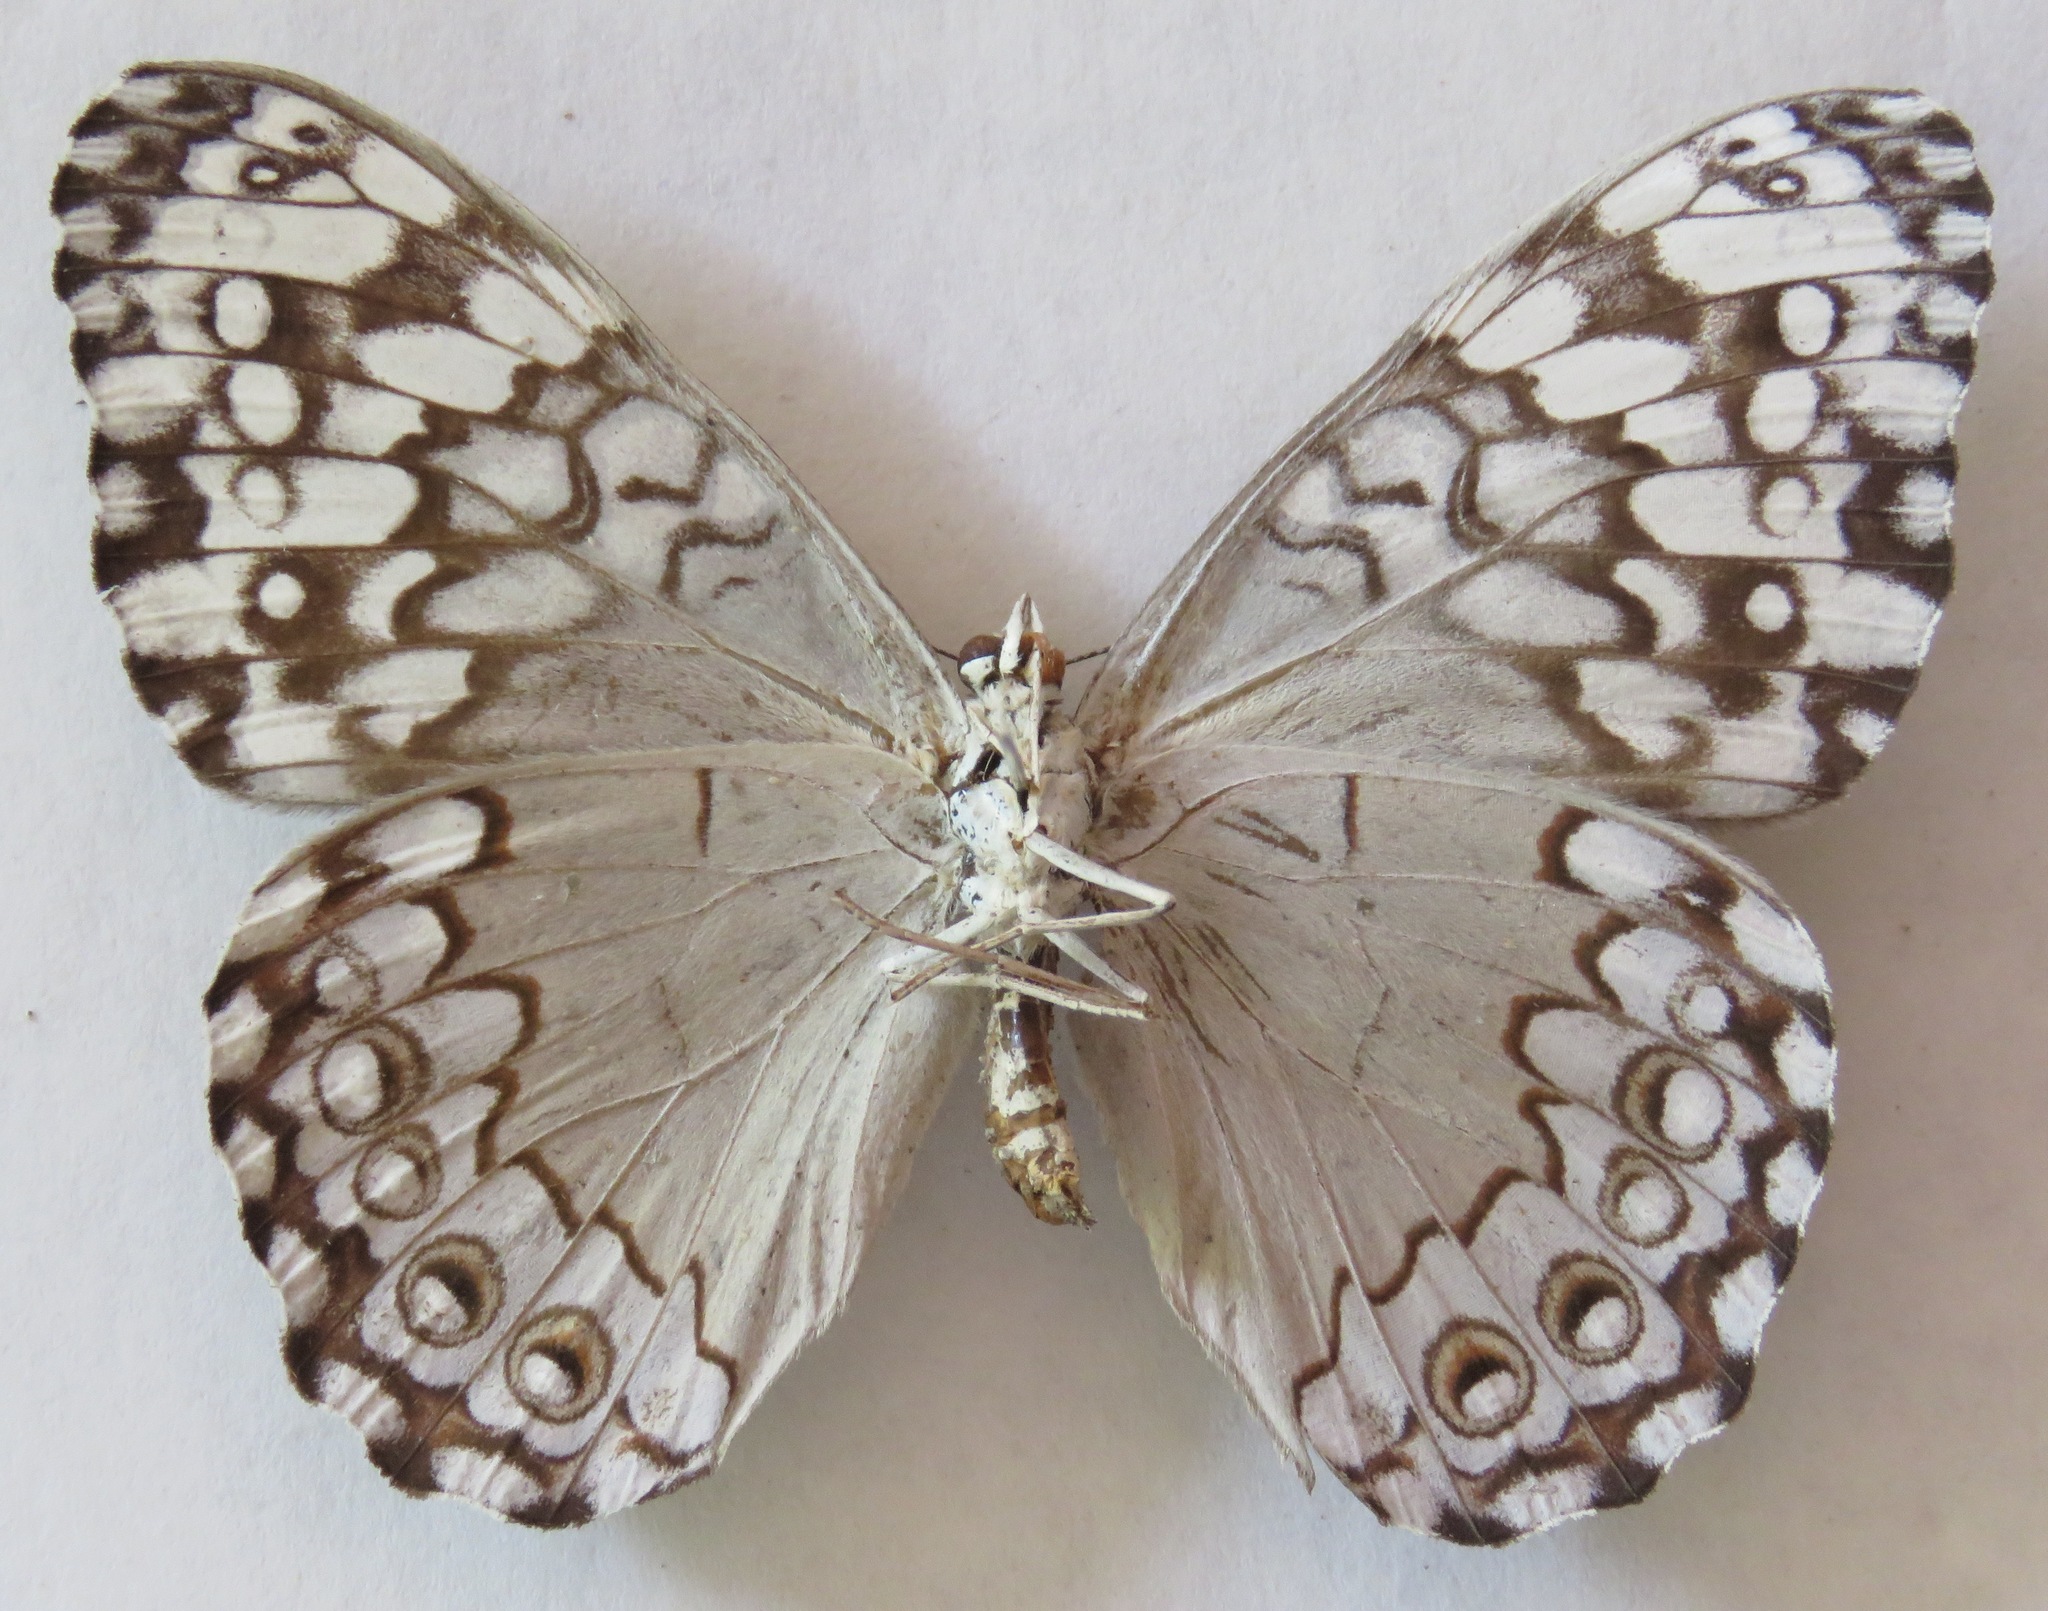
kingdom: Animalia
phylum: Arthropoda
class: Insecta
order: Lepidoptera
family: Nymphalidae
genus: Hamadryas
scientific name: Hamadryas glauconome
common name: Glaucous cracker
